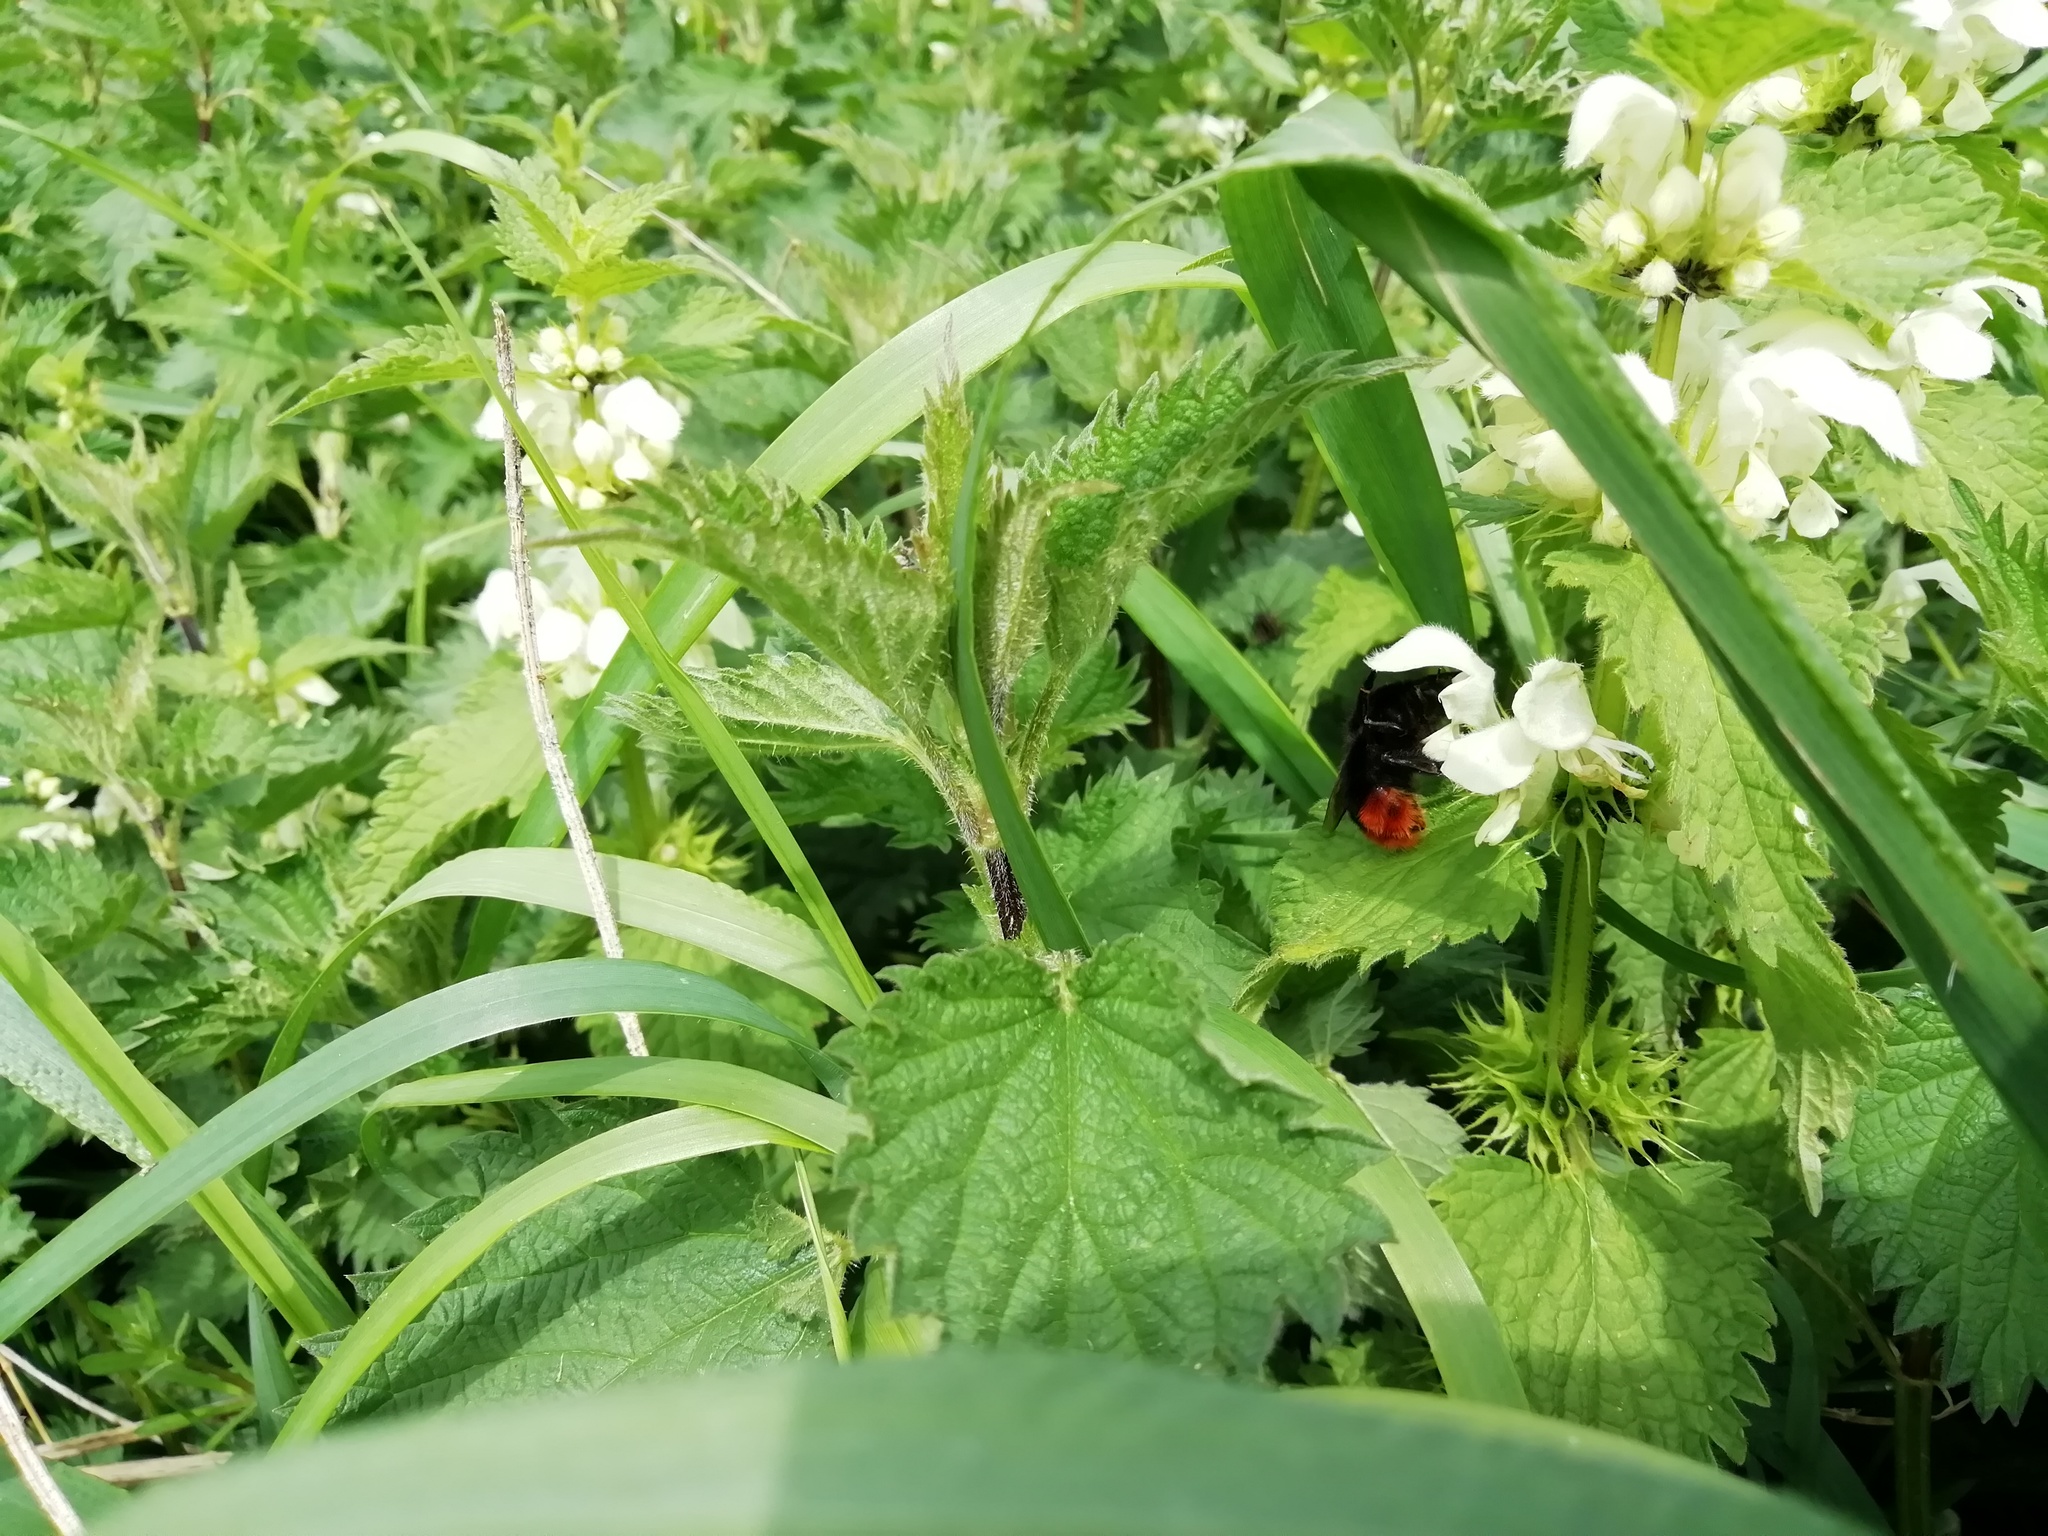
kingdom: Animalia
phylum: Arthropoda
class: Insecta
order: Hymenoptera
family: Apidae
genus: Bombus
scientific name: Bombus lapidarius
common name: Large red-tailed humble-bee
